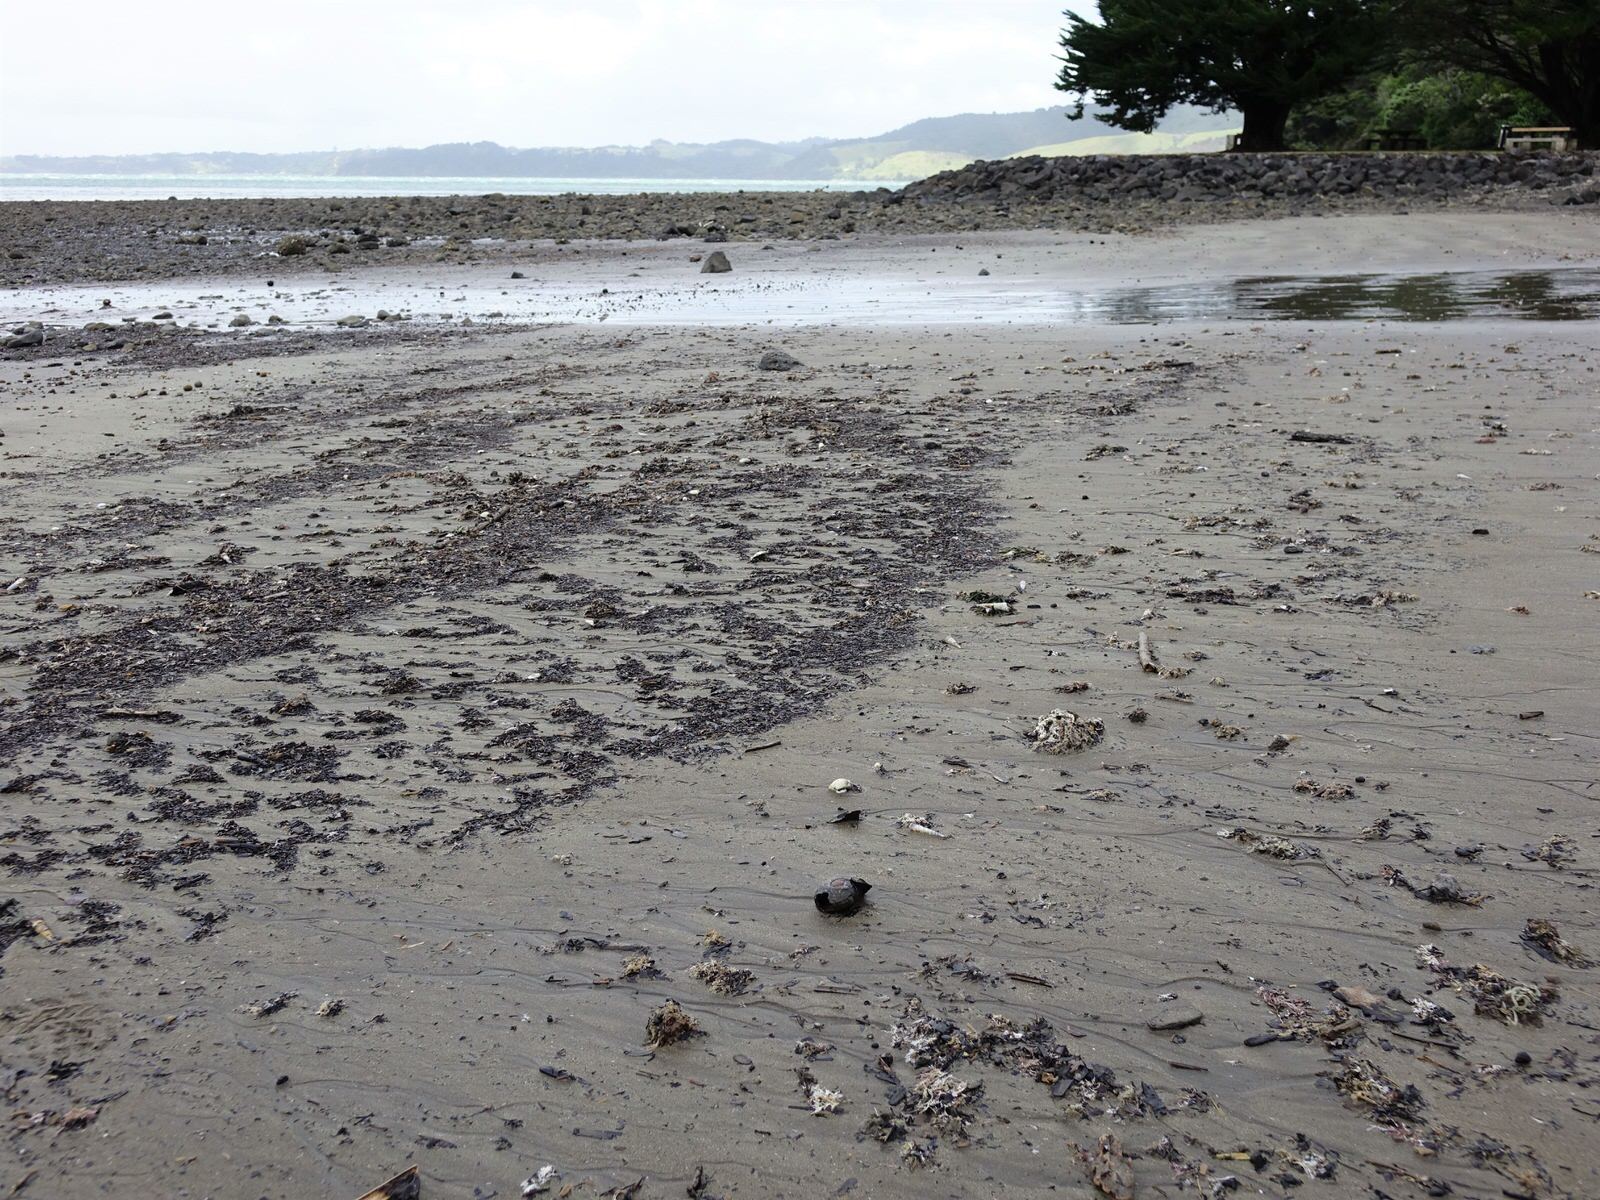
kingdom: Animalia
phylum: Mollusca
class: Gastropoda
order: Stylommatophora
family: Rhytididae
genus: Paryphanta
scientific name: Paryphanta busbyi
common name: Kauri snail
